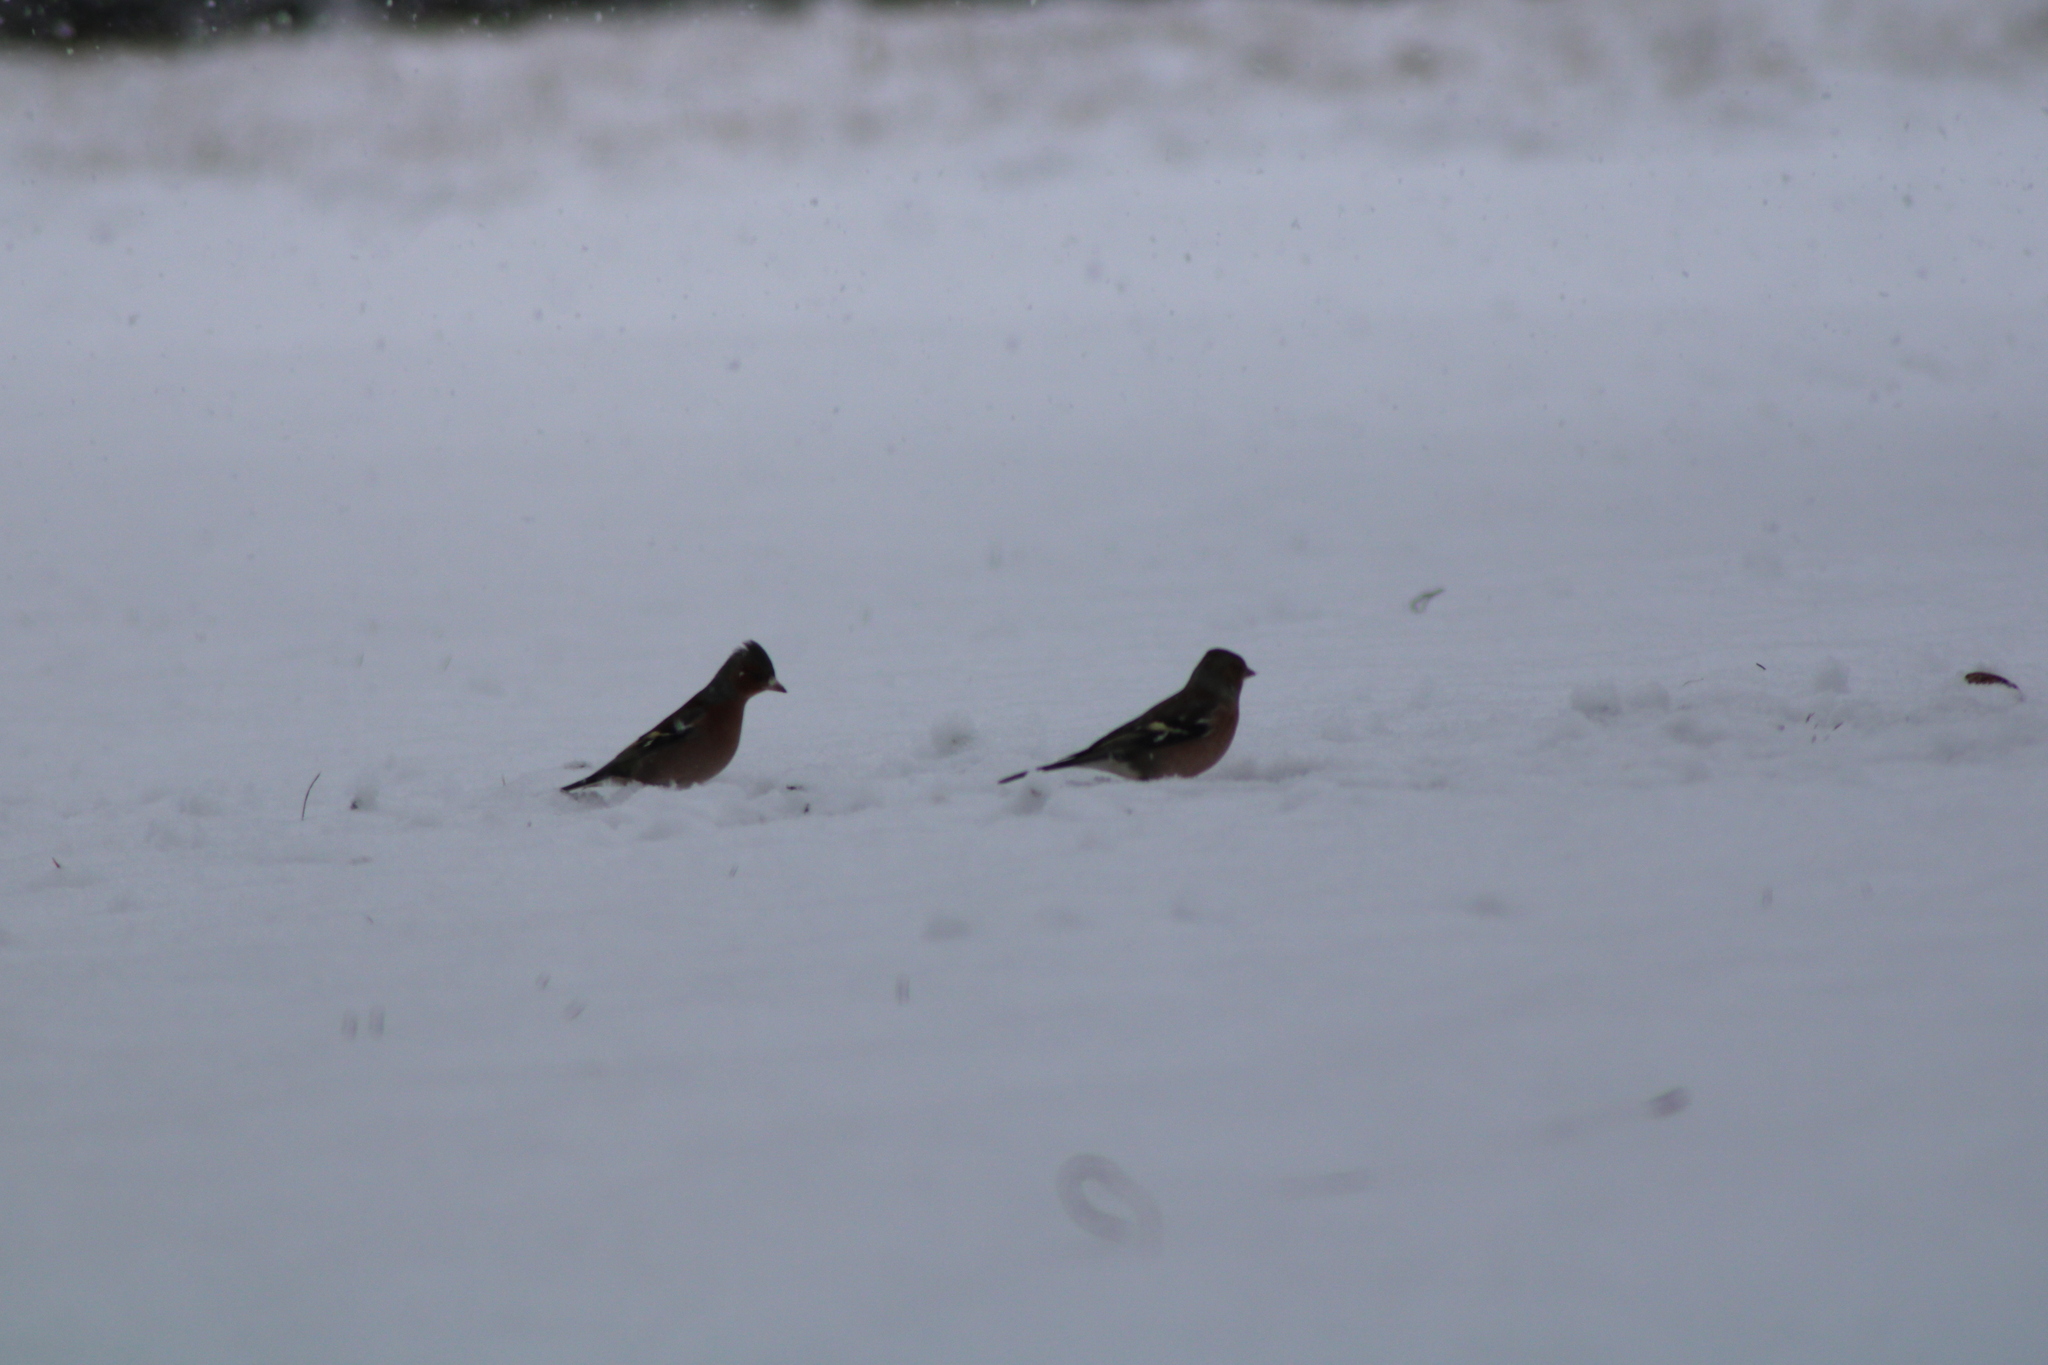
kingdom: Animalia
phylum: Chordata
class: Aves
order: Passeriformes
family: Fringillidae
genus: Fringilla
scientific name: Fringilla coelebs
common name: Common chaffinch
